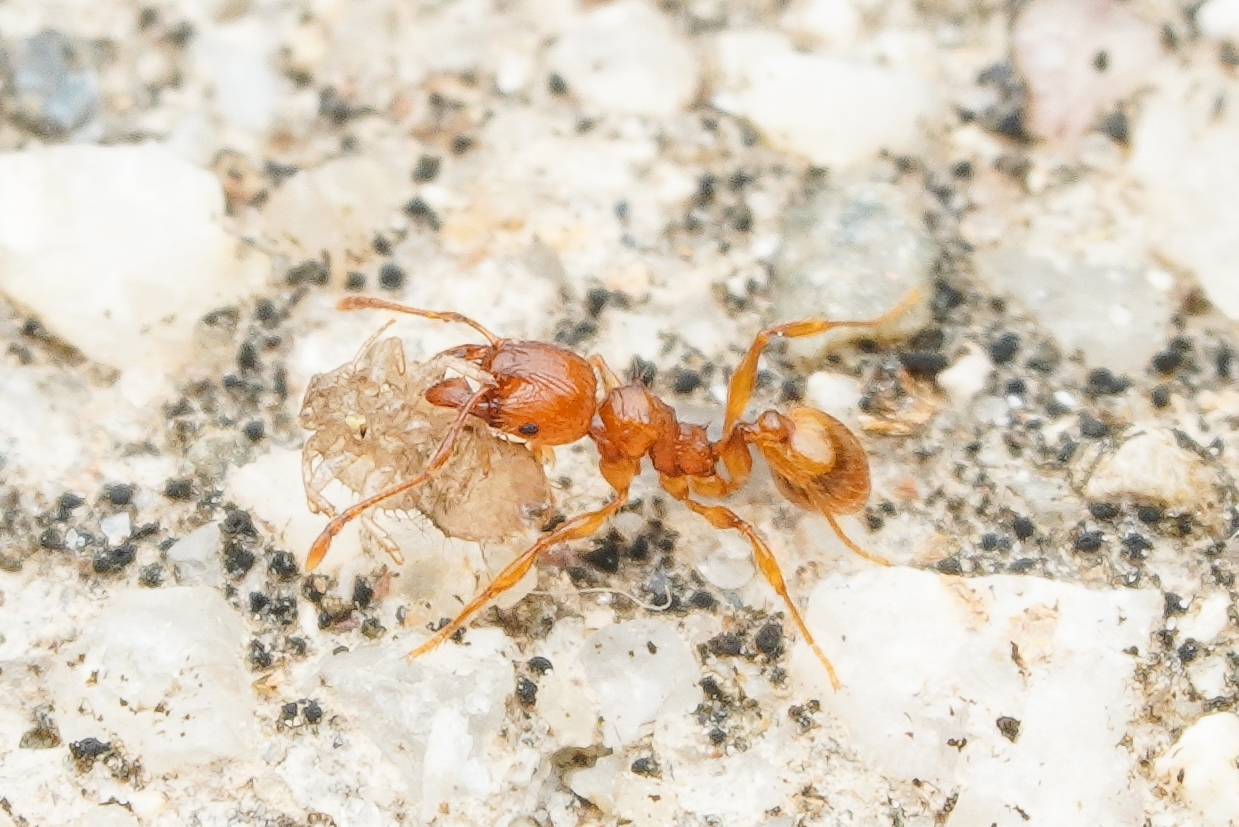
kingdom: Animalia
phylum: Arthropoda
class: Insecta
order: Hymenoptera
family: Formicidae
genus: Pheidole
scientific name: Pheidole fervida
